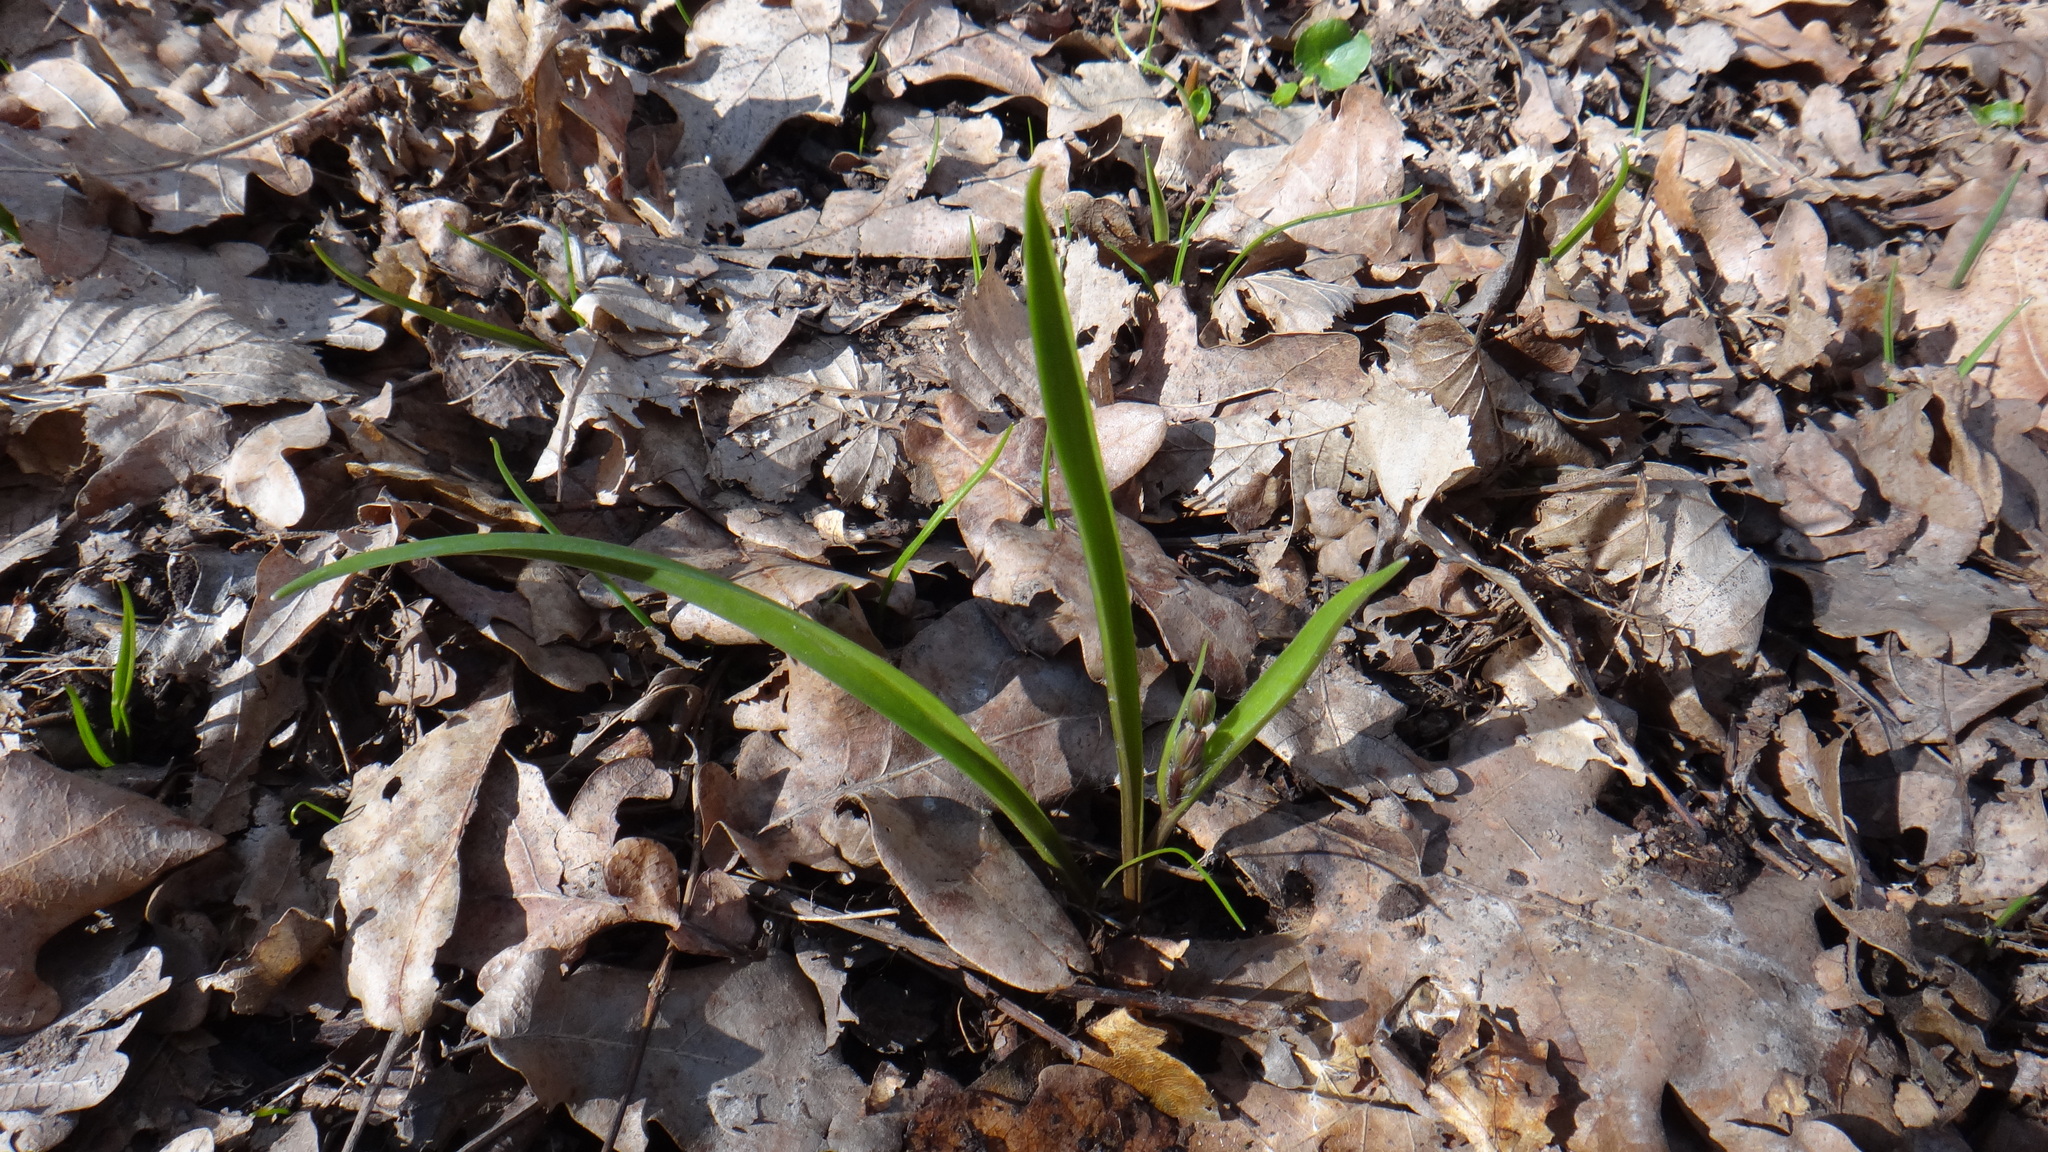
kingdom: Plantae
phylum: Tracheophyta
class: Liliopsida
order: Liliales
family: Liliaceae
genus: Gagea
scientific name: Gagea lutea
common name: Yellow star-of-bethlehem
